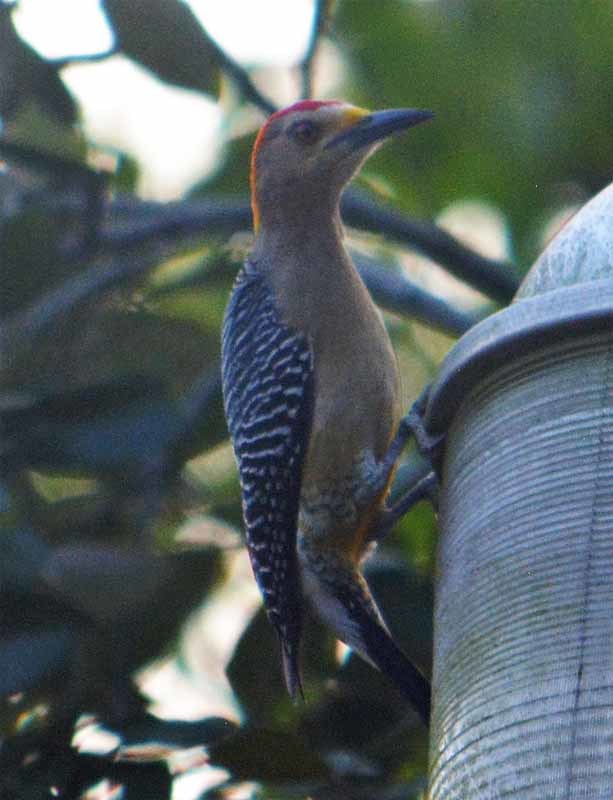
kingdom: Animalia
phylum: Chordata
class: Aves
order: Piciformes
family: Picidae
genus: Melanerpes
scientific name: Melanerpes aurifrons
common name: Golden-fronted woodpecker
